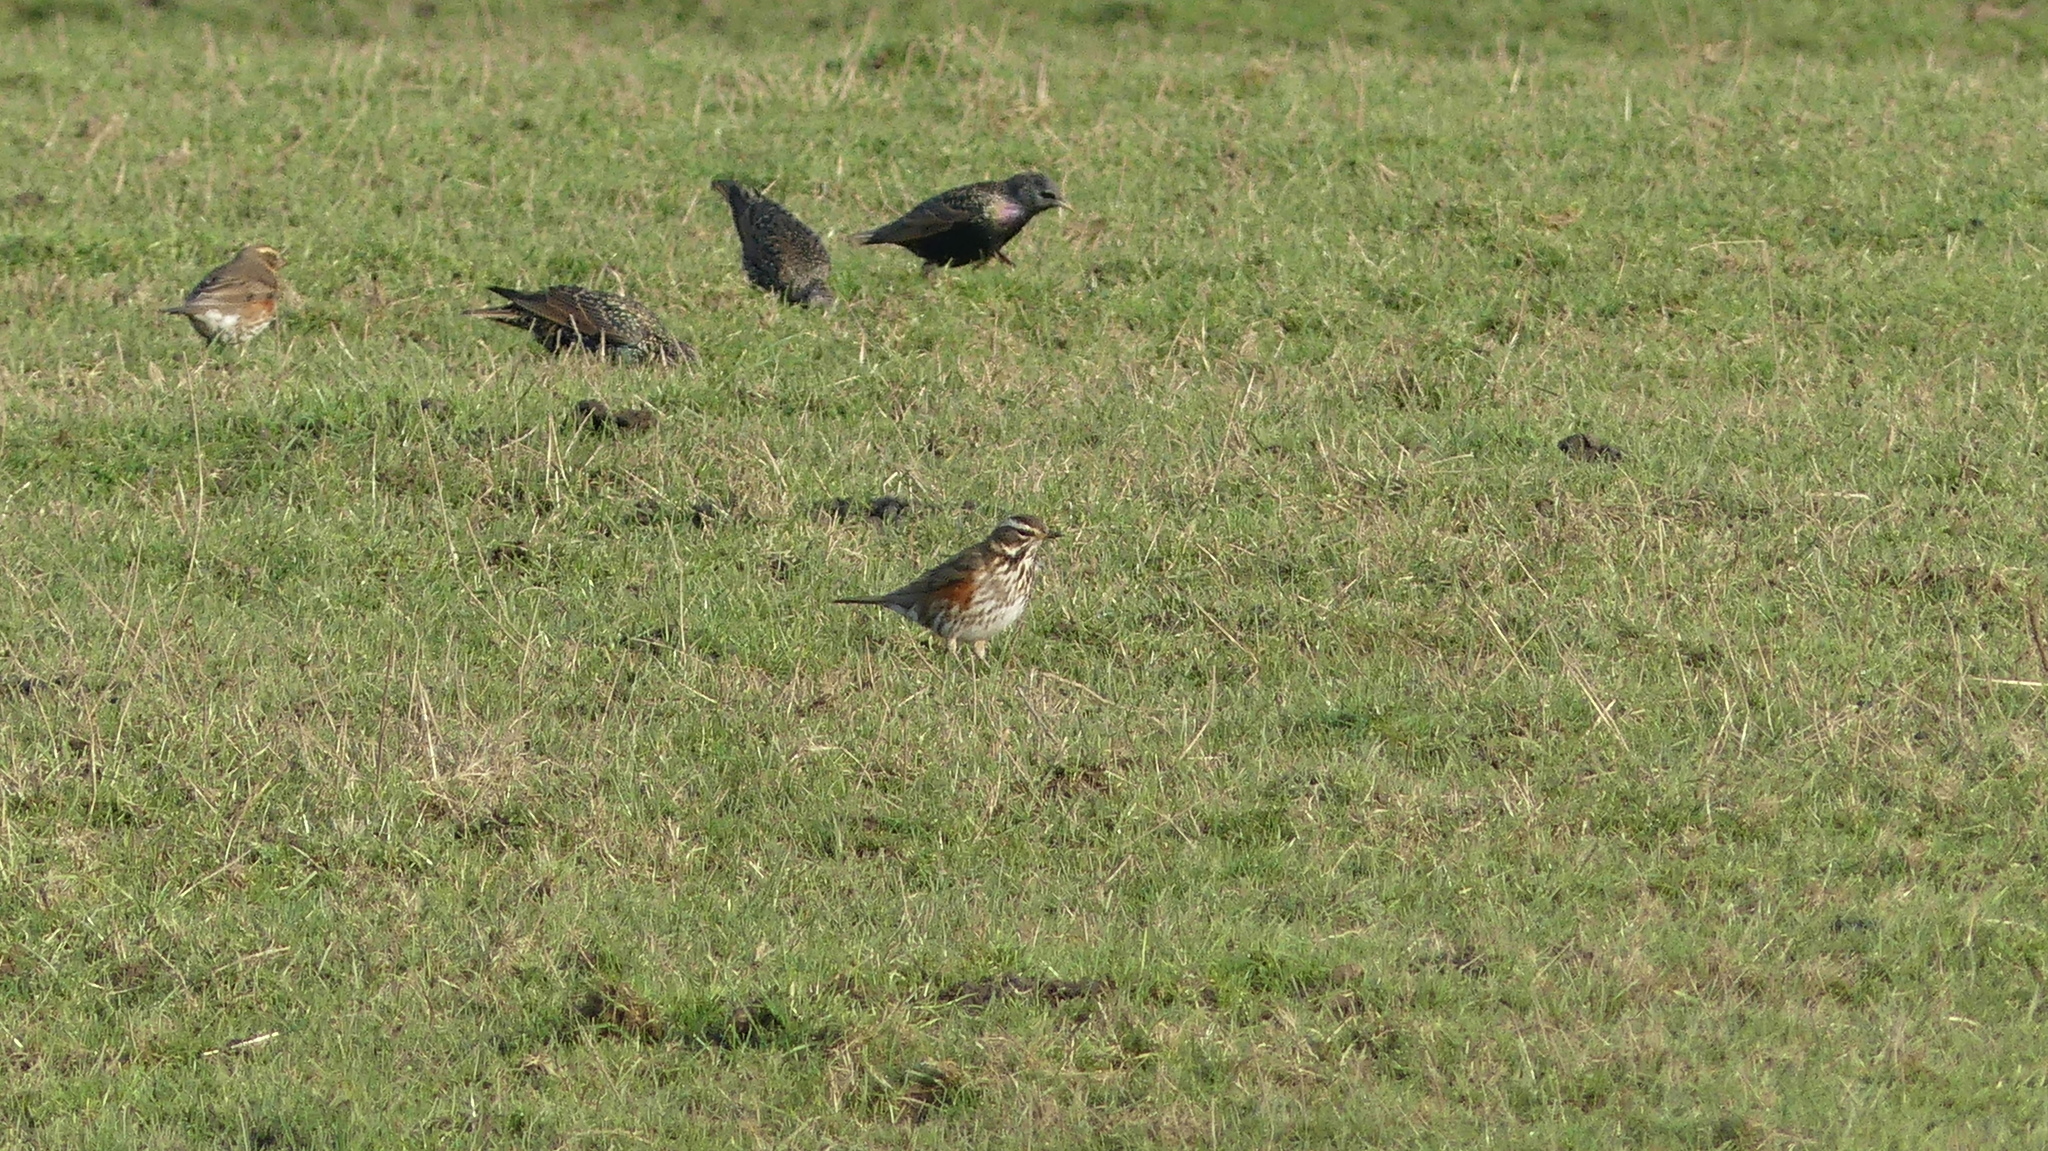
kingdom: Animalia
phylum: Chordata
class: Aves
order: Passeriformes
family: Sturnidae
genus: Sturnus
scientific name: Sturnus vulgaris
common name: Common starling
